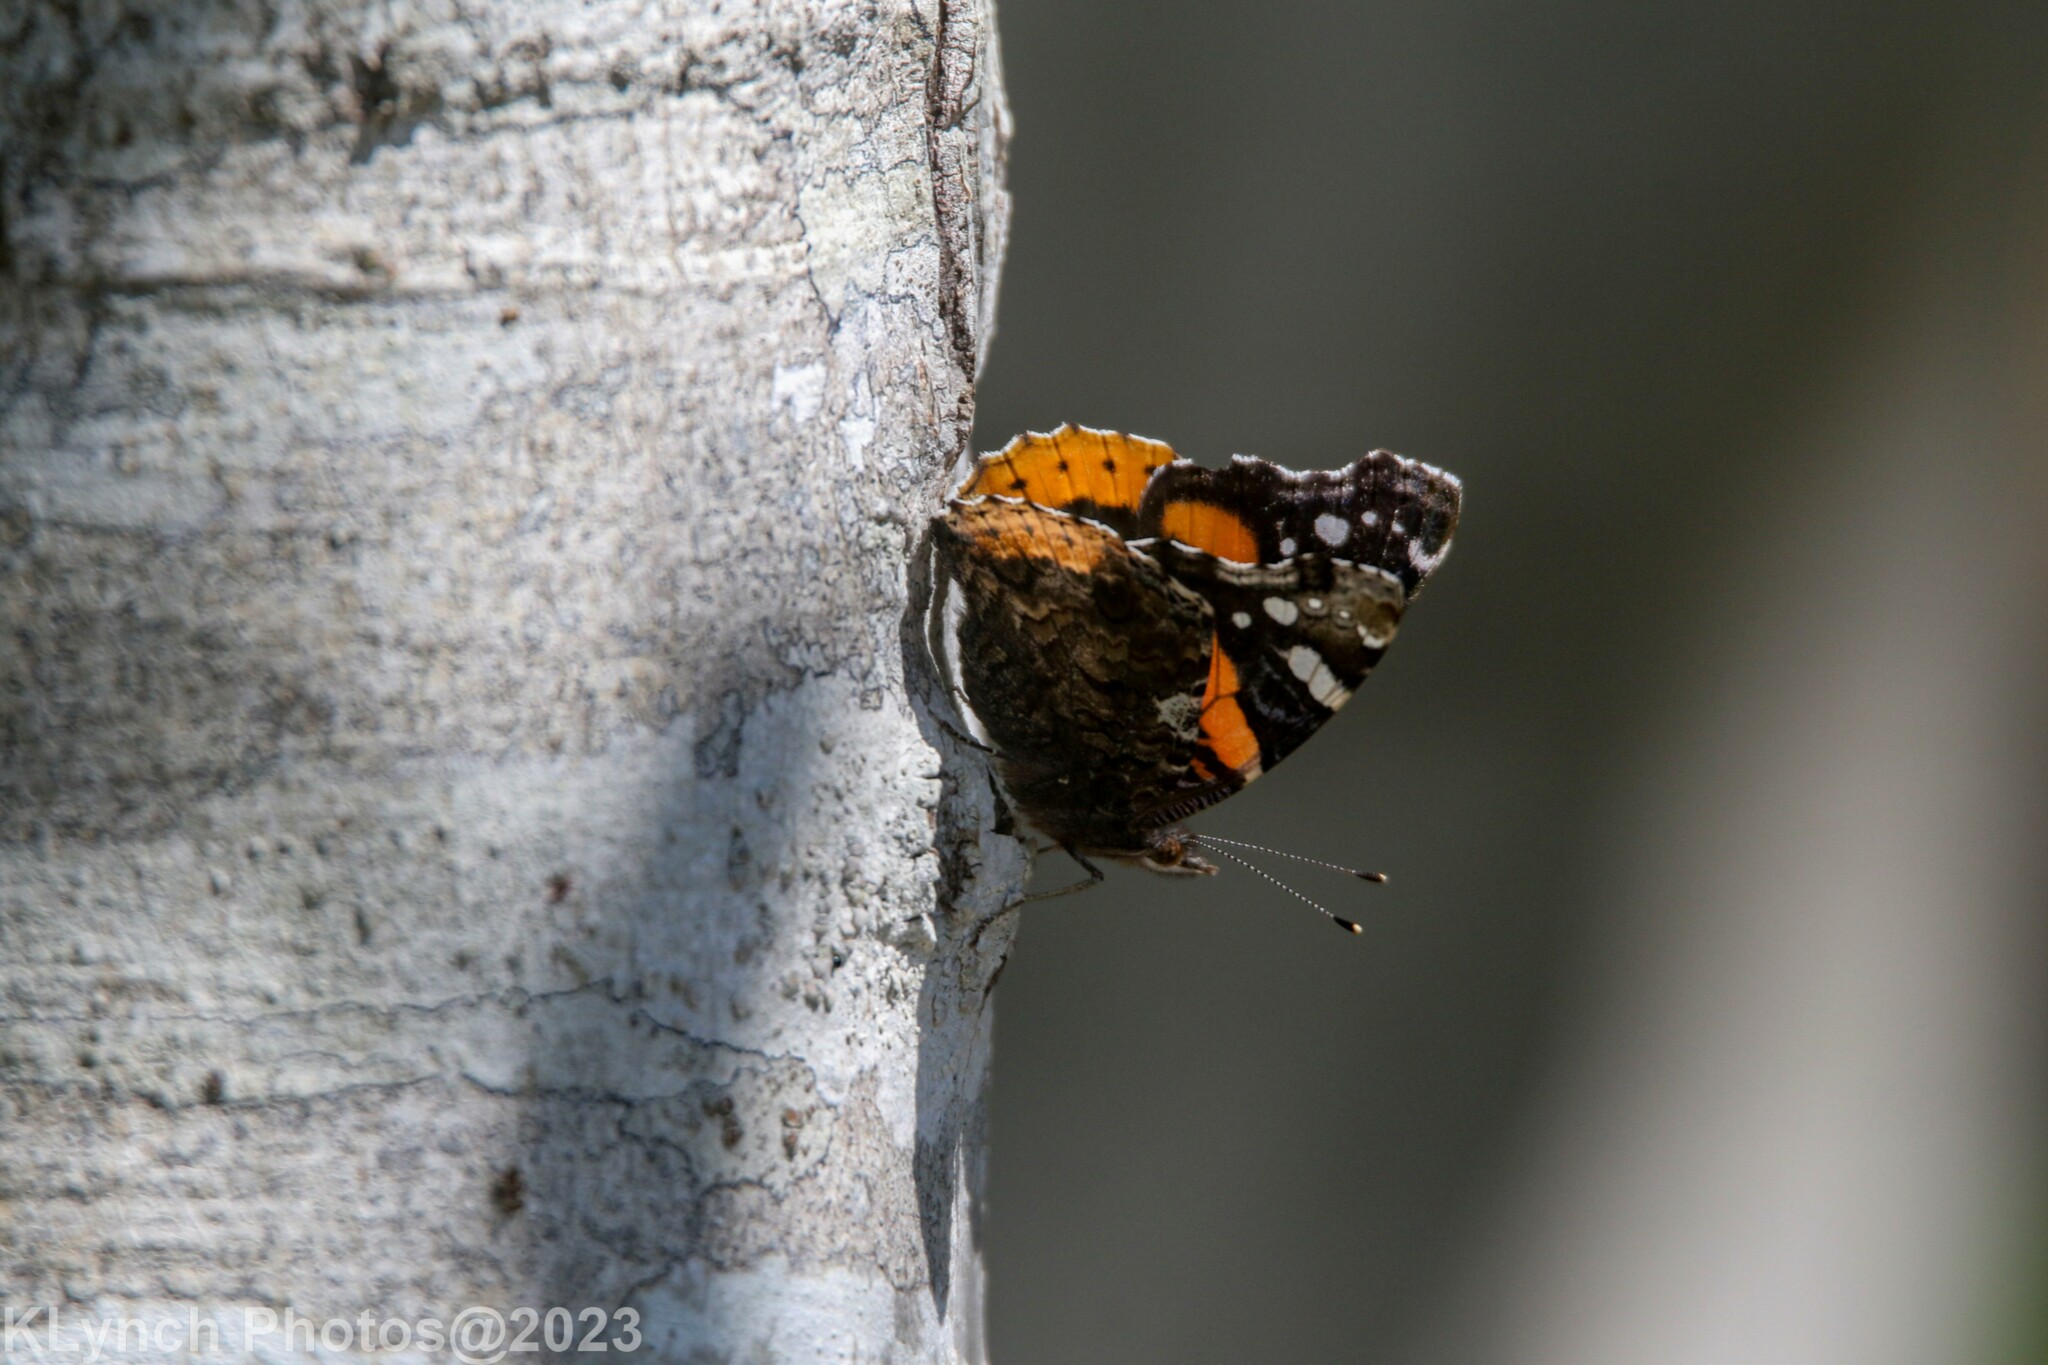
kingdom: Animalia
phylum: Arthropoda
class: Insecta
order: Lepidoptera
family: Nymphalidae
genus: Vanessa
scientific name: Vanessa atalanta
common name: Red admiral
